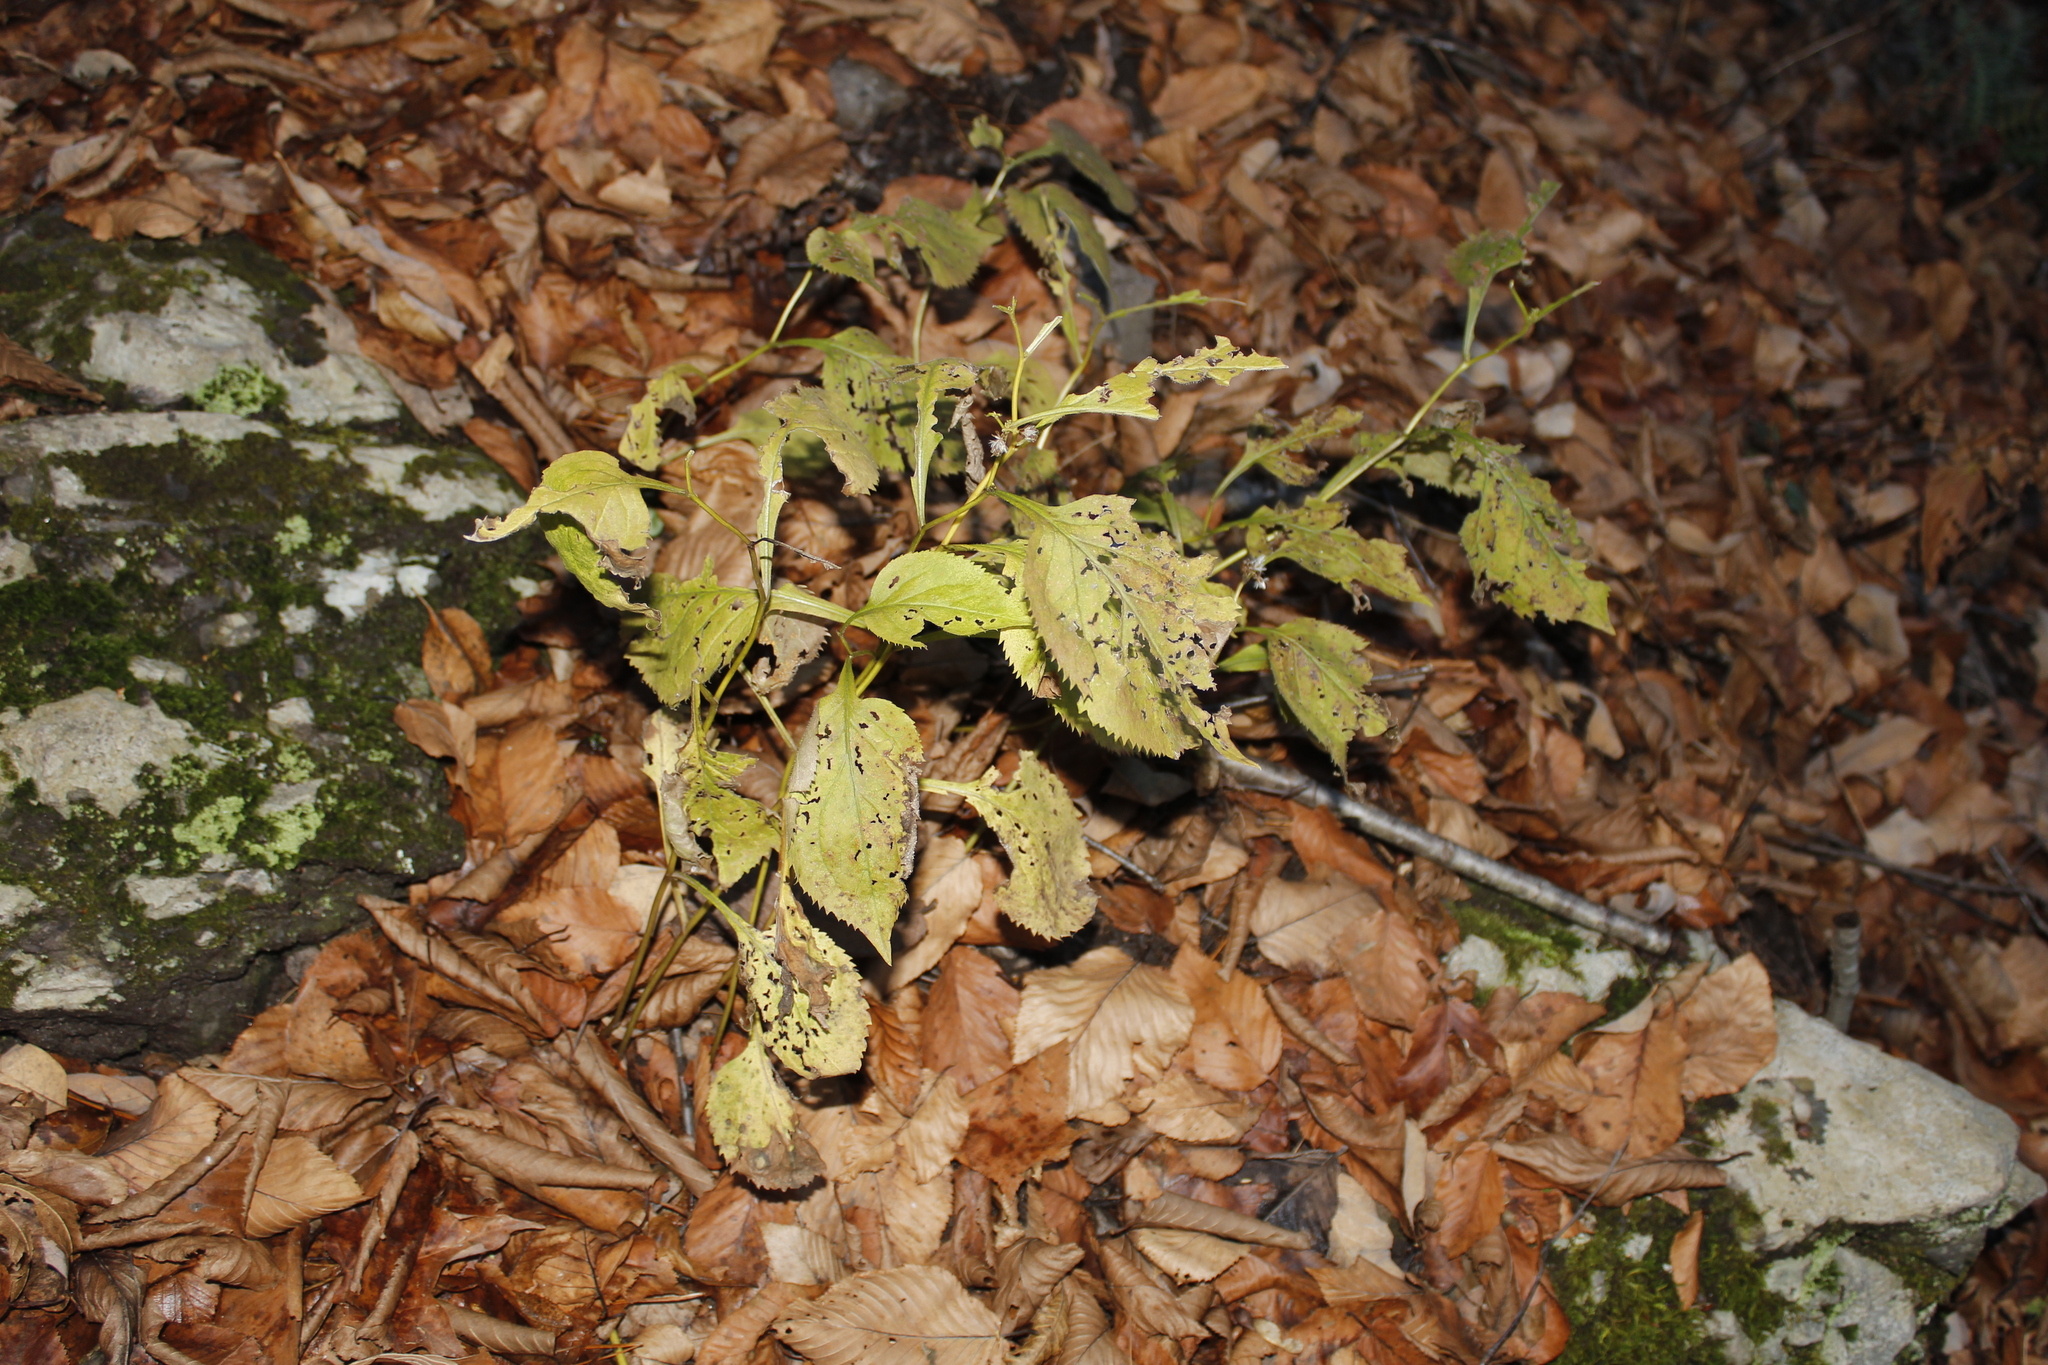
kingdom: Plantae
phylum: Tracheophyta
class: Magnoliopsida
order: Asterales
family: Asteraceae
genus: Solidago
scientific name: Solidago flexicaulis
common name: Zig-zag goldenrod
